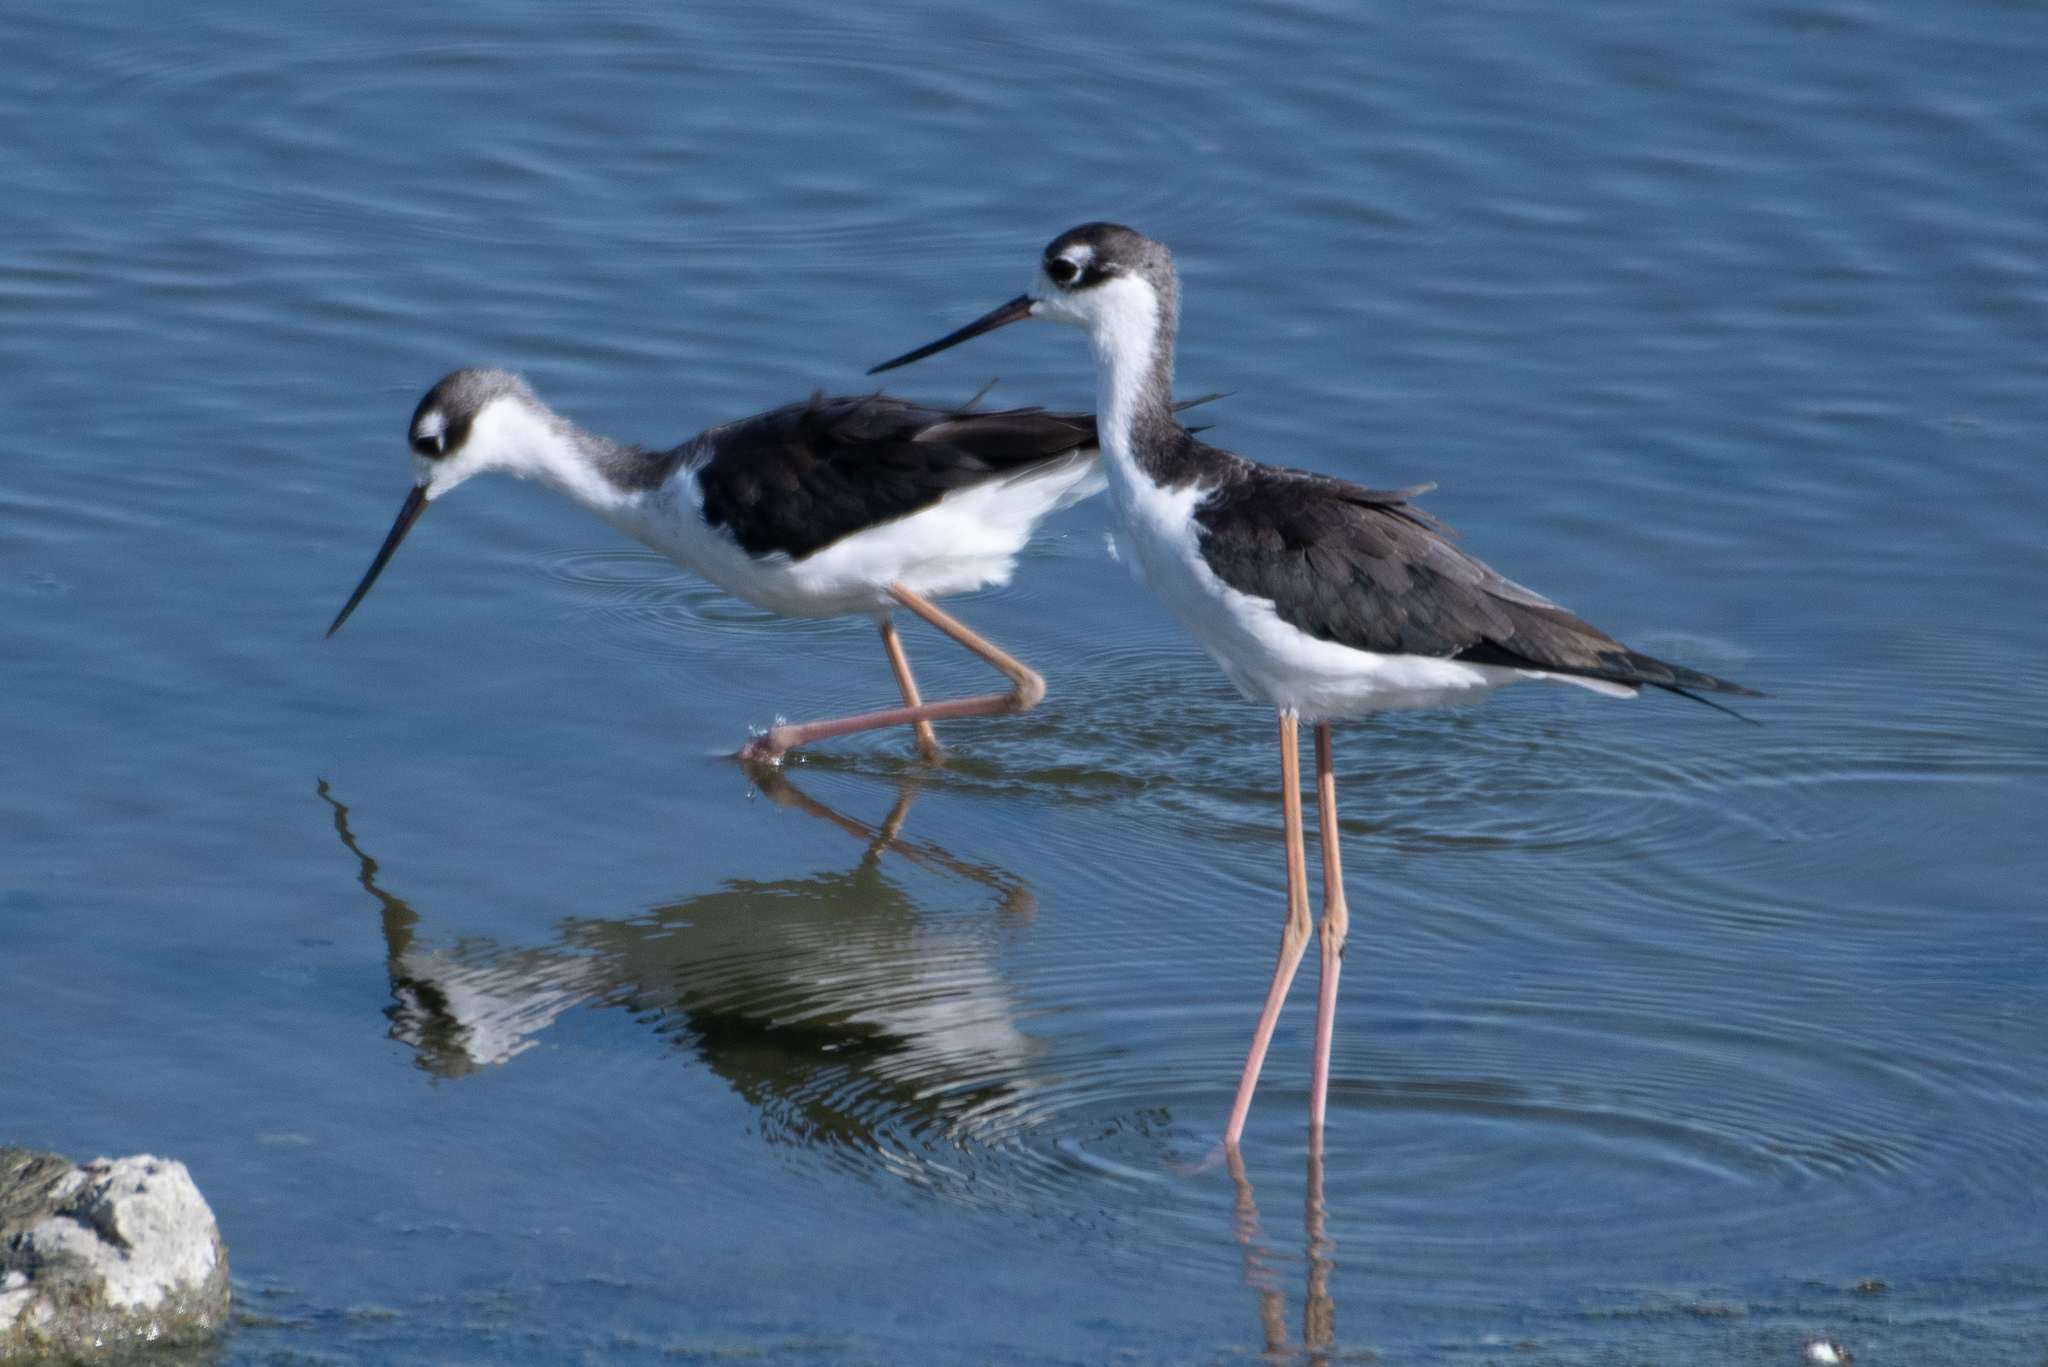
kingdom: Animalia
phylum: Chordata
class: Aves
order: Charadriiformes
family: Recurvirostridae
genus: Himantopus
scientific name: Himantopus mexicanus
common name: Black-necked stilt
